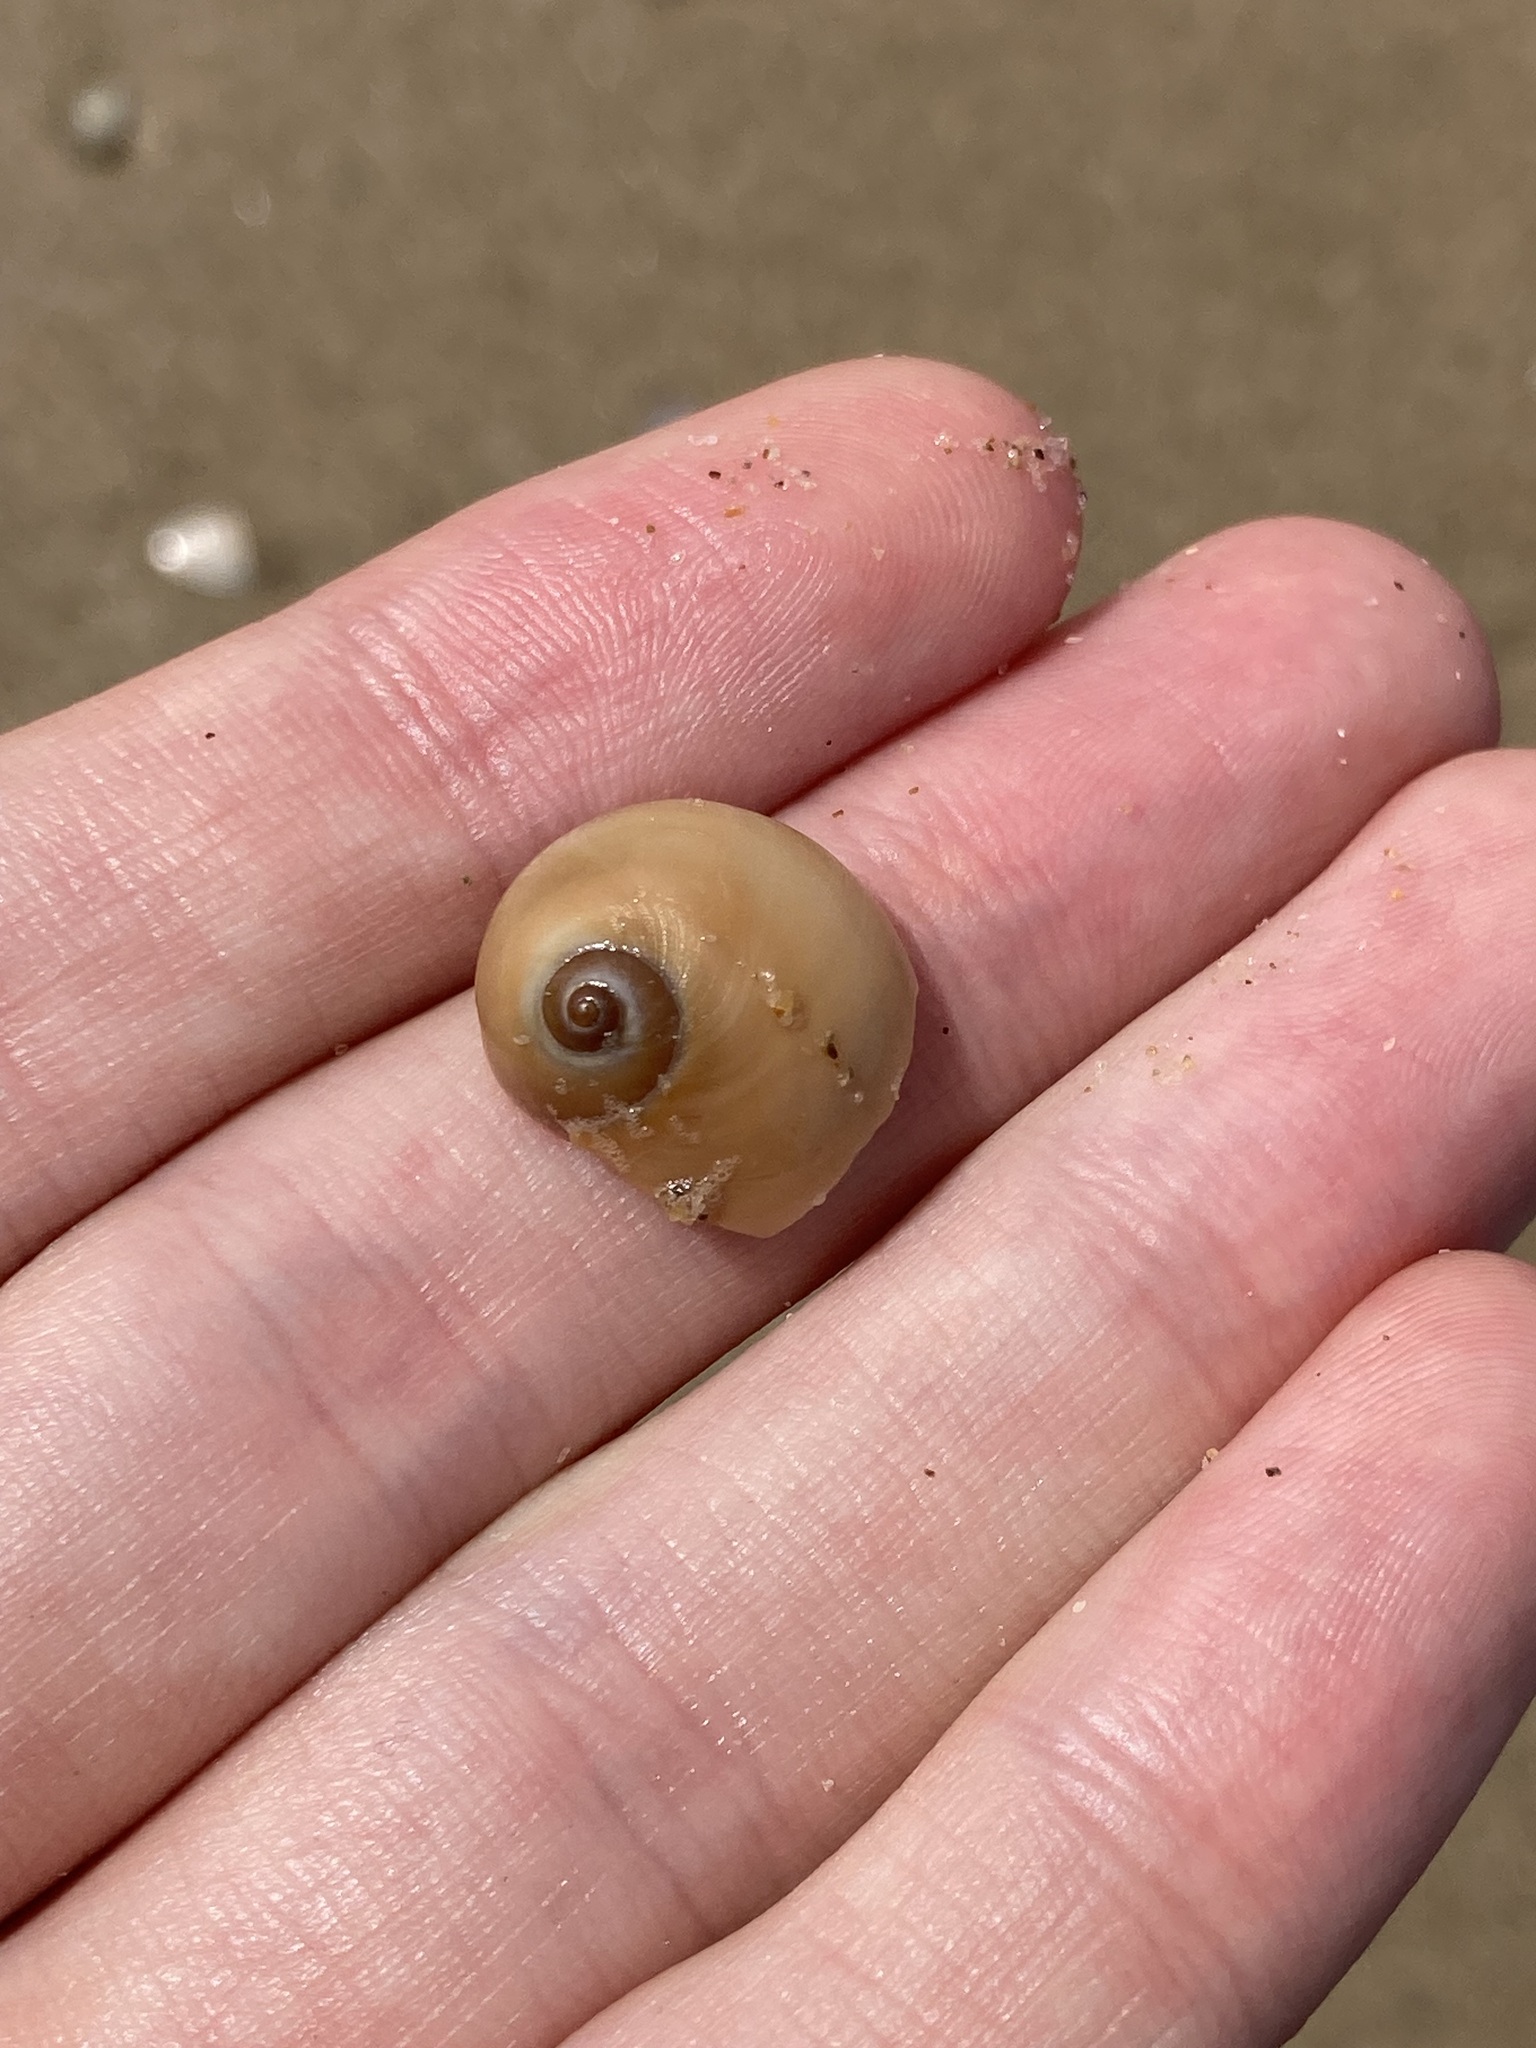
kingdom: Animalia
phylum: Mollusca
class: Gastropoda
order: Littorinimorpha
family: Naticidae
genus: Neverita
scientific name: Neverita didyma
